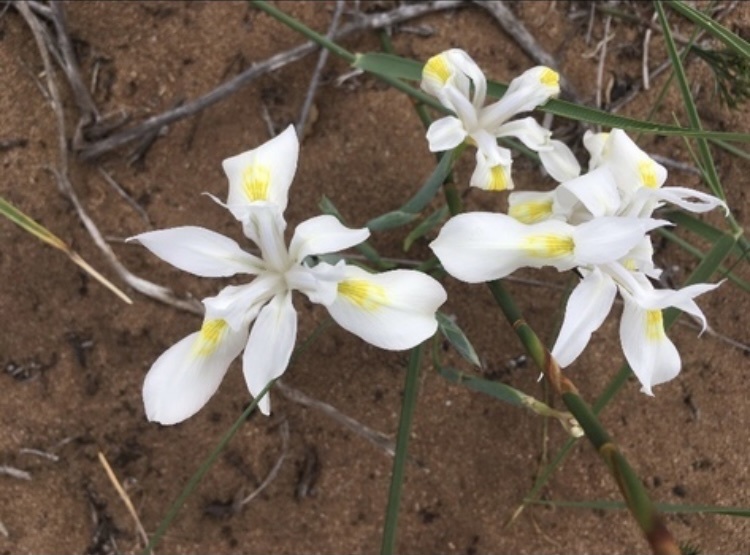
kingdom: Plantae
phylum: Tracheophyta
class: Liliopsida
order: Asparagales
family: Iridaceae
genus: Moraea
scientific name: Moraea fugax
